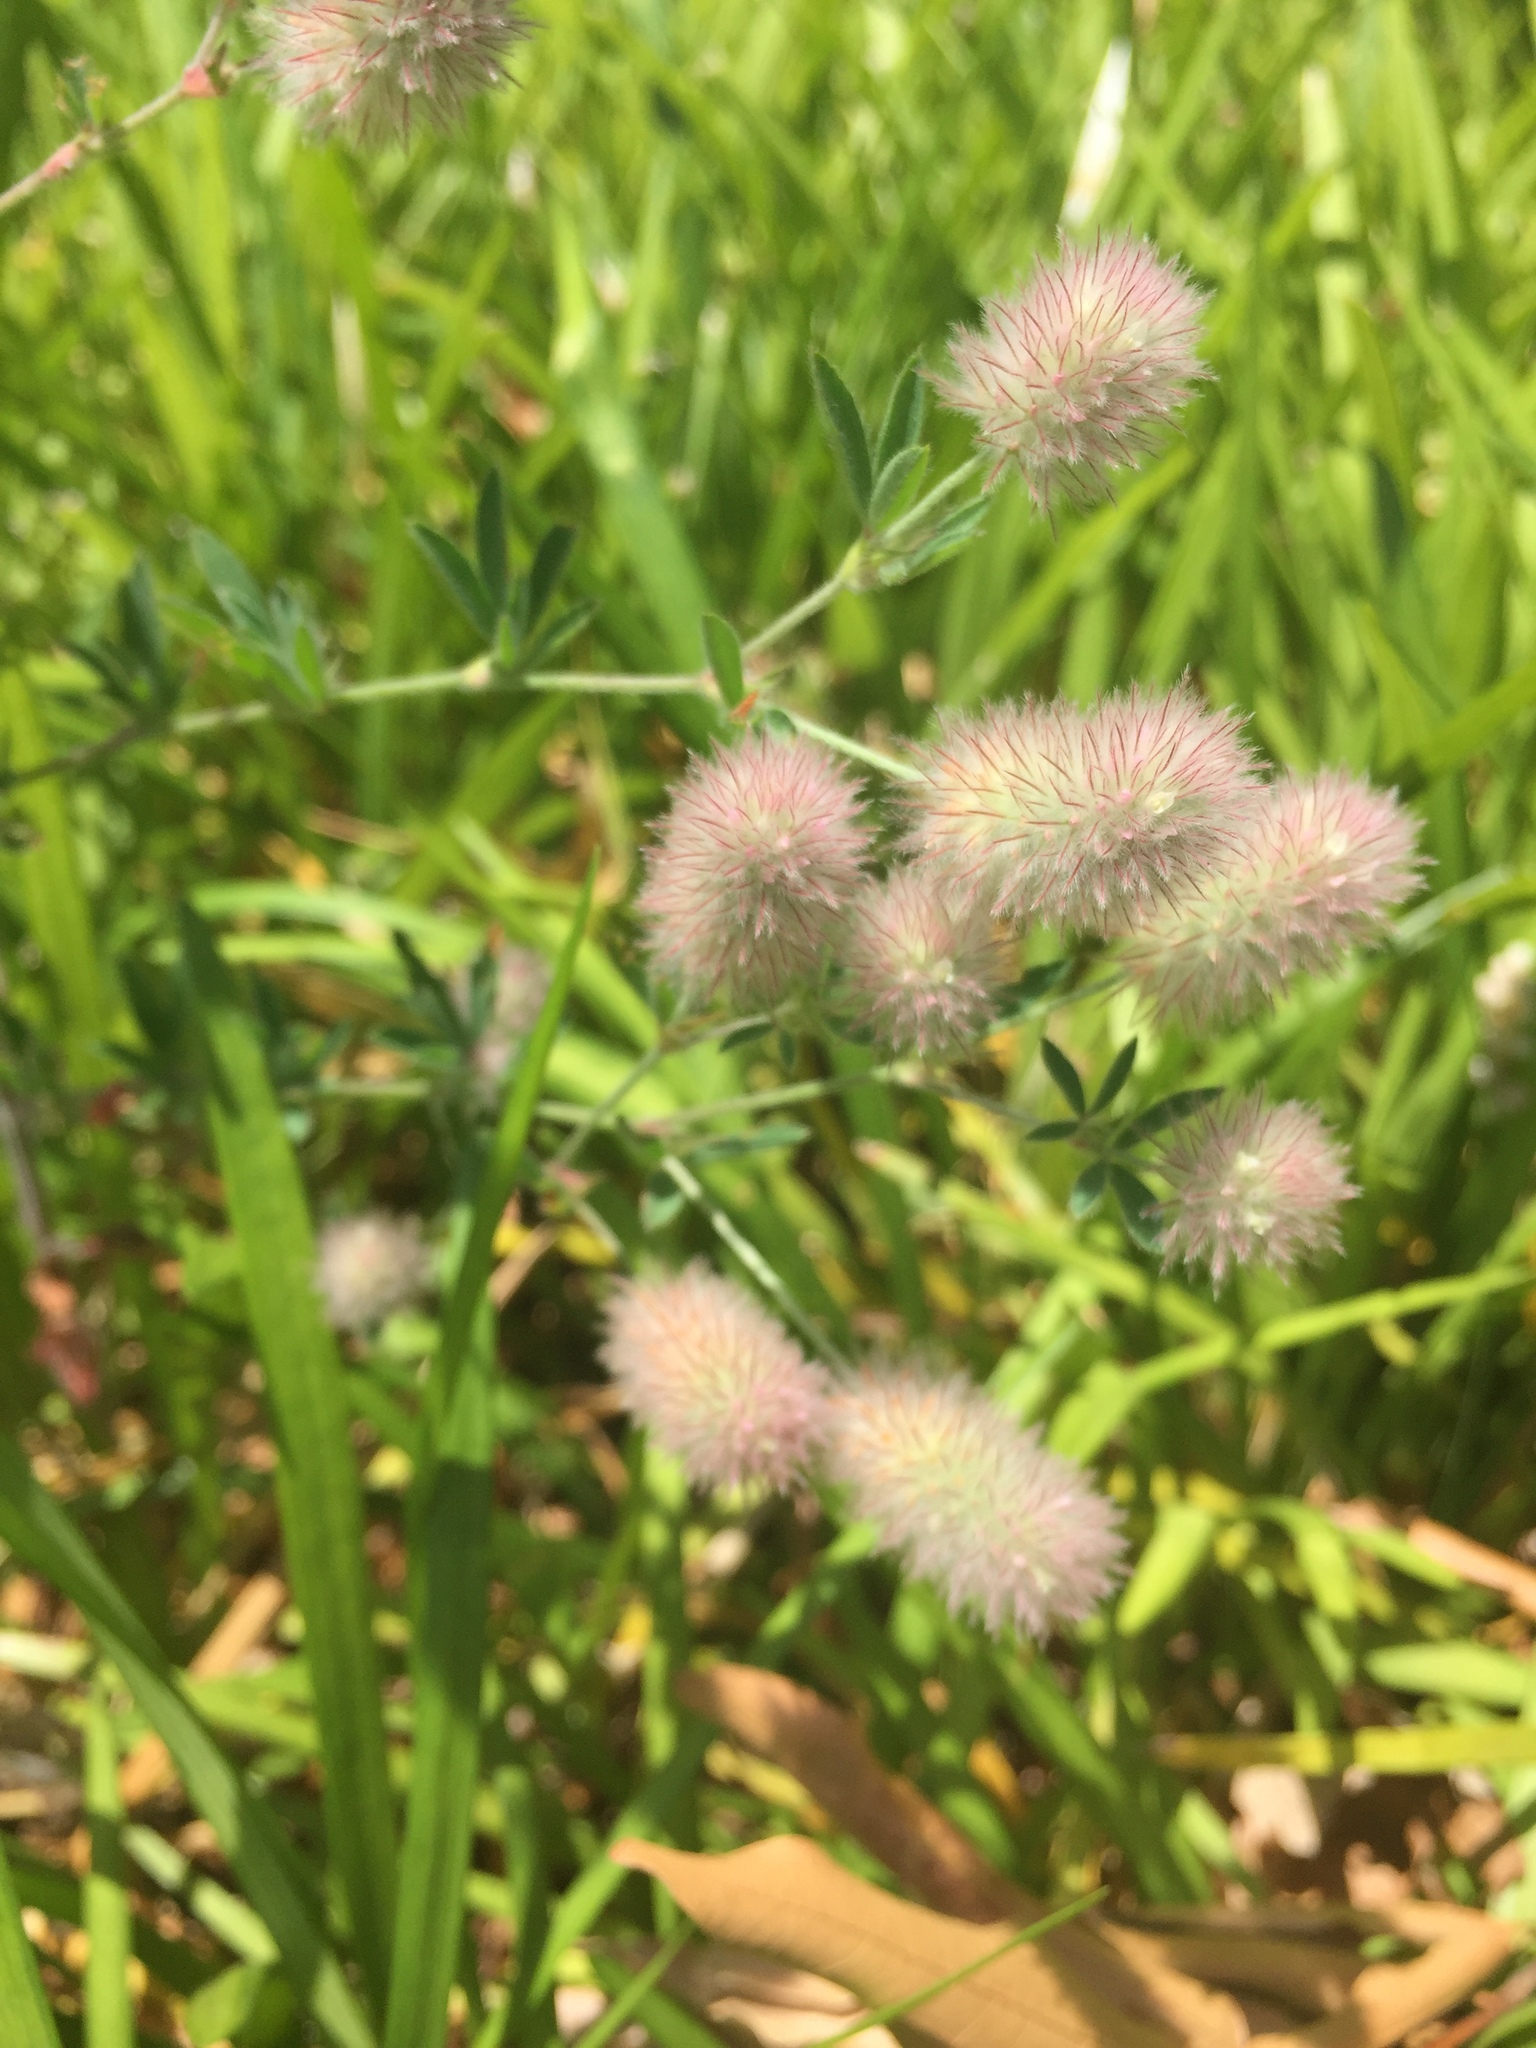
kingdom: Plantae
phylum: Tracheophyta
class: Magnoliopsida
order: Fabales
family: Fabaceae
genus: Trifolium
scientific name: Trifolium arvense
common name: Hare's-foot clover
